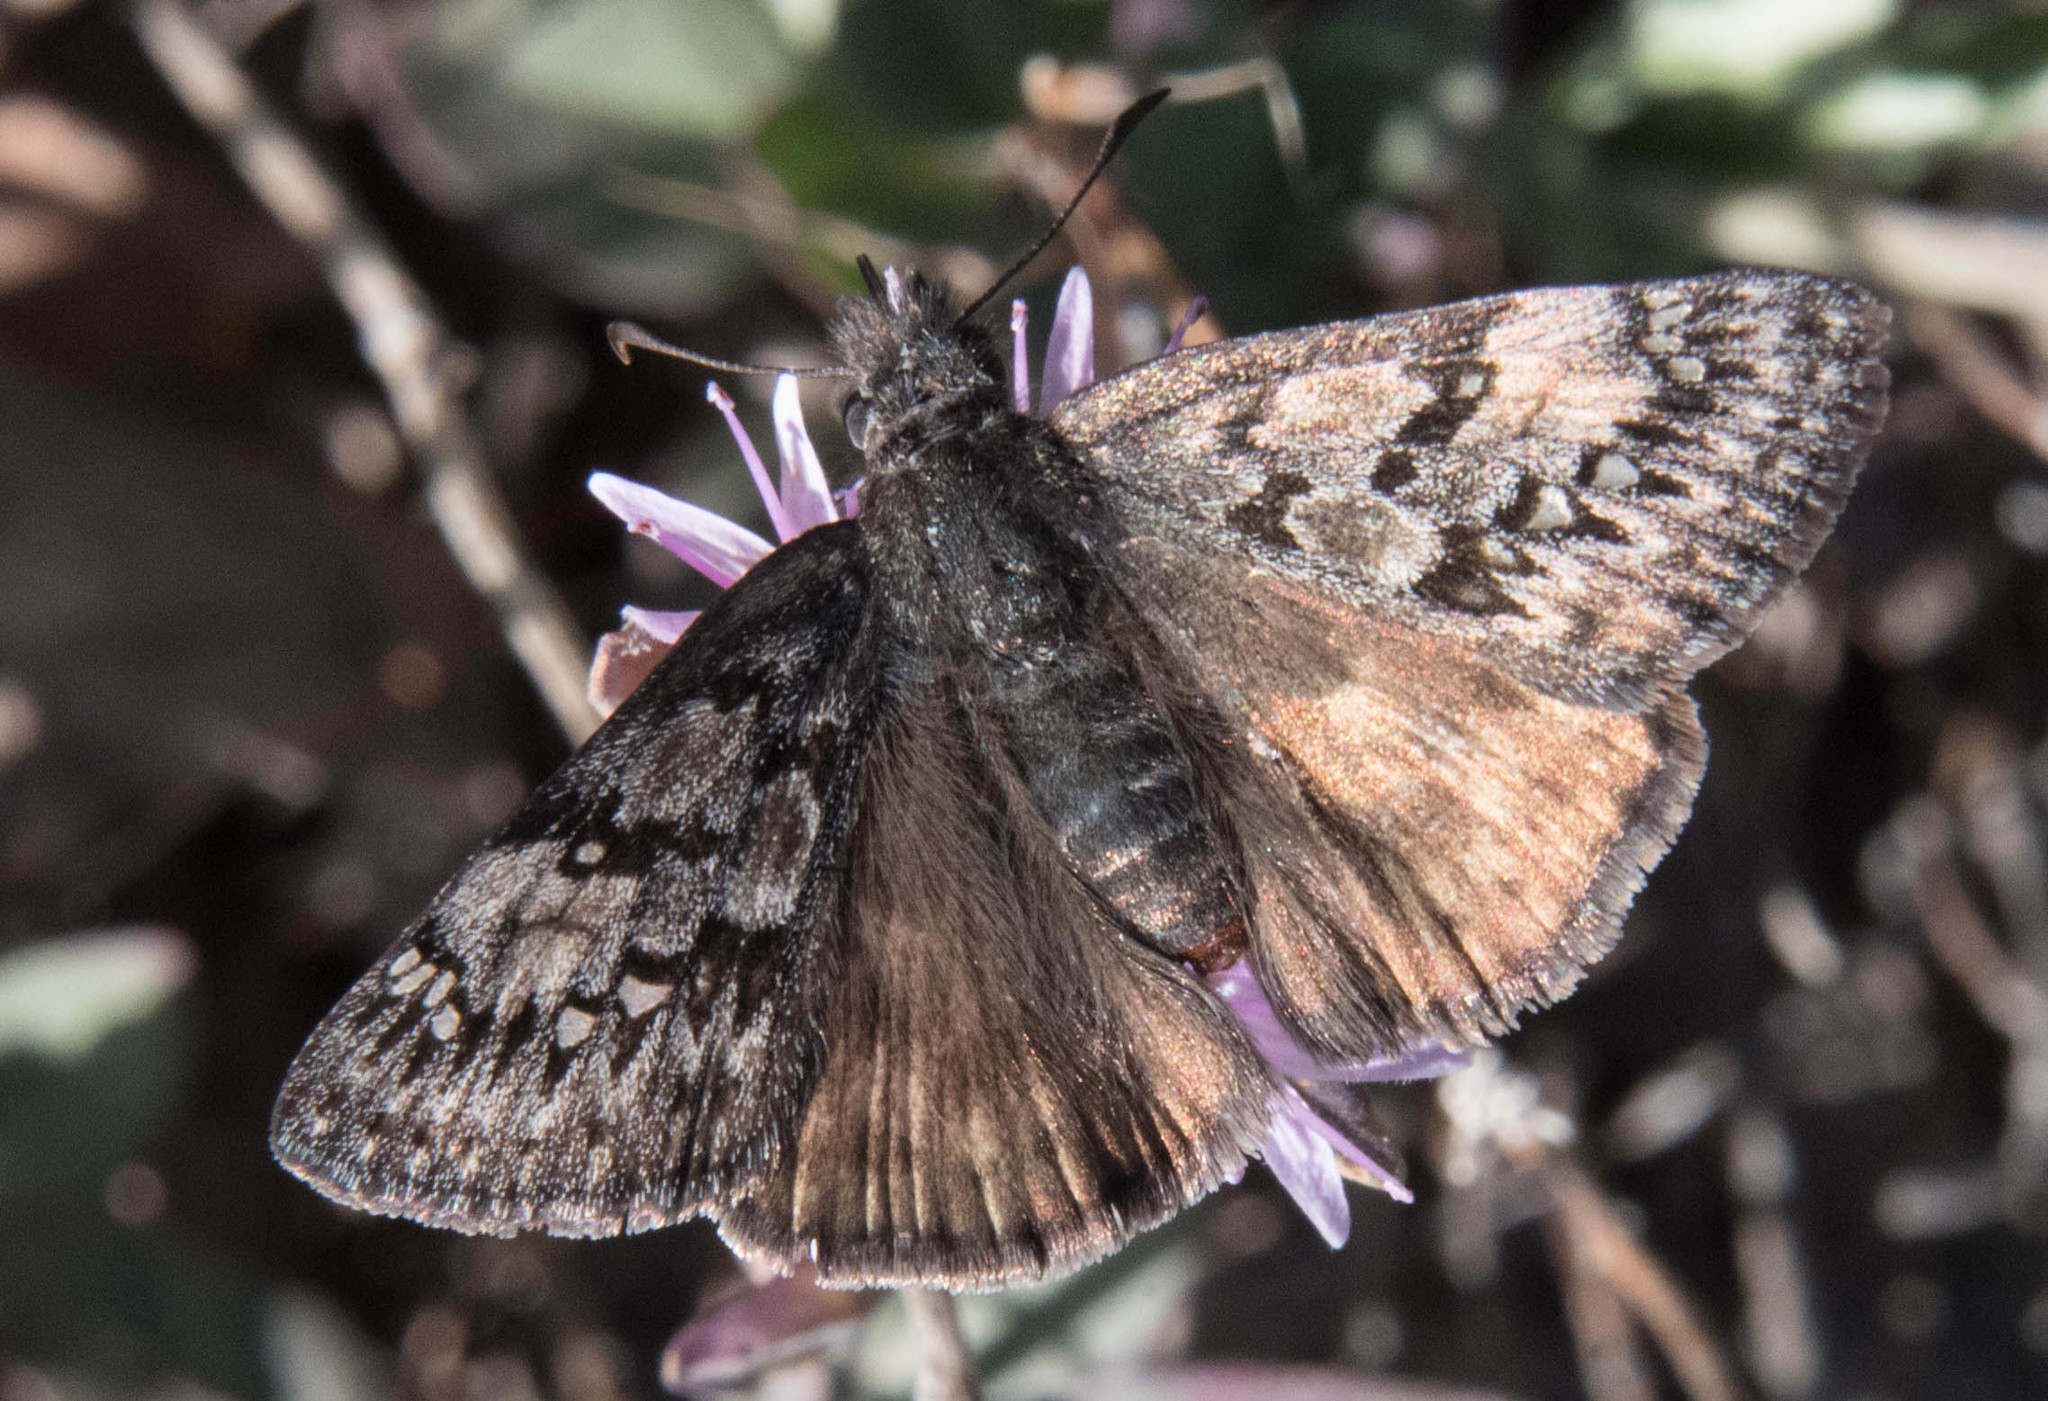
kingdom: Animalia
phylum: Arthropoda
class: Insecta
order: Lepidoptera
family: Hesperiidae
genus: Erynnis
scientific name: Erynnis propertius
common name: Propertius duskywing
